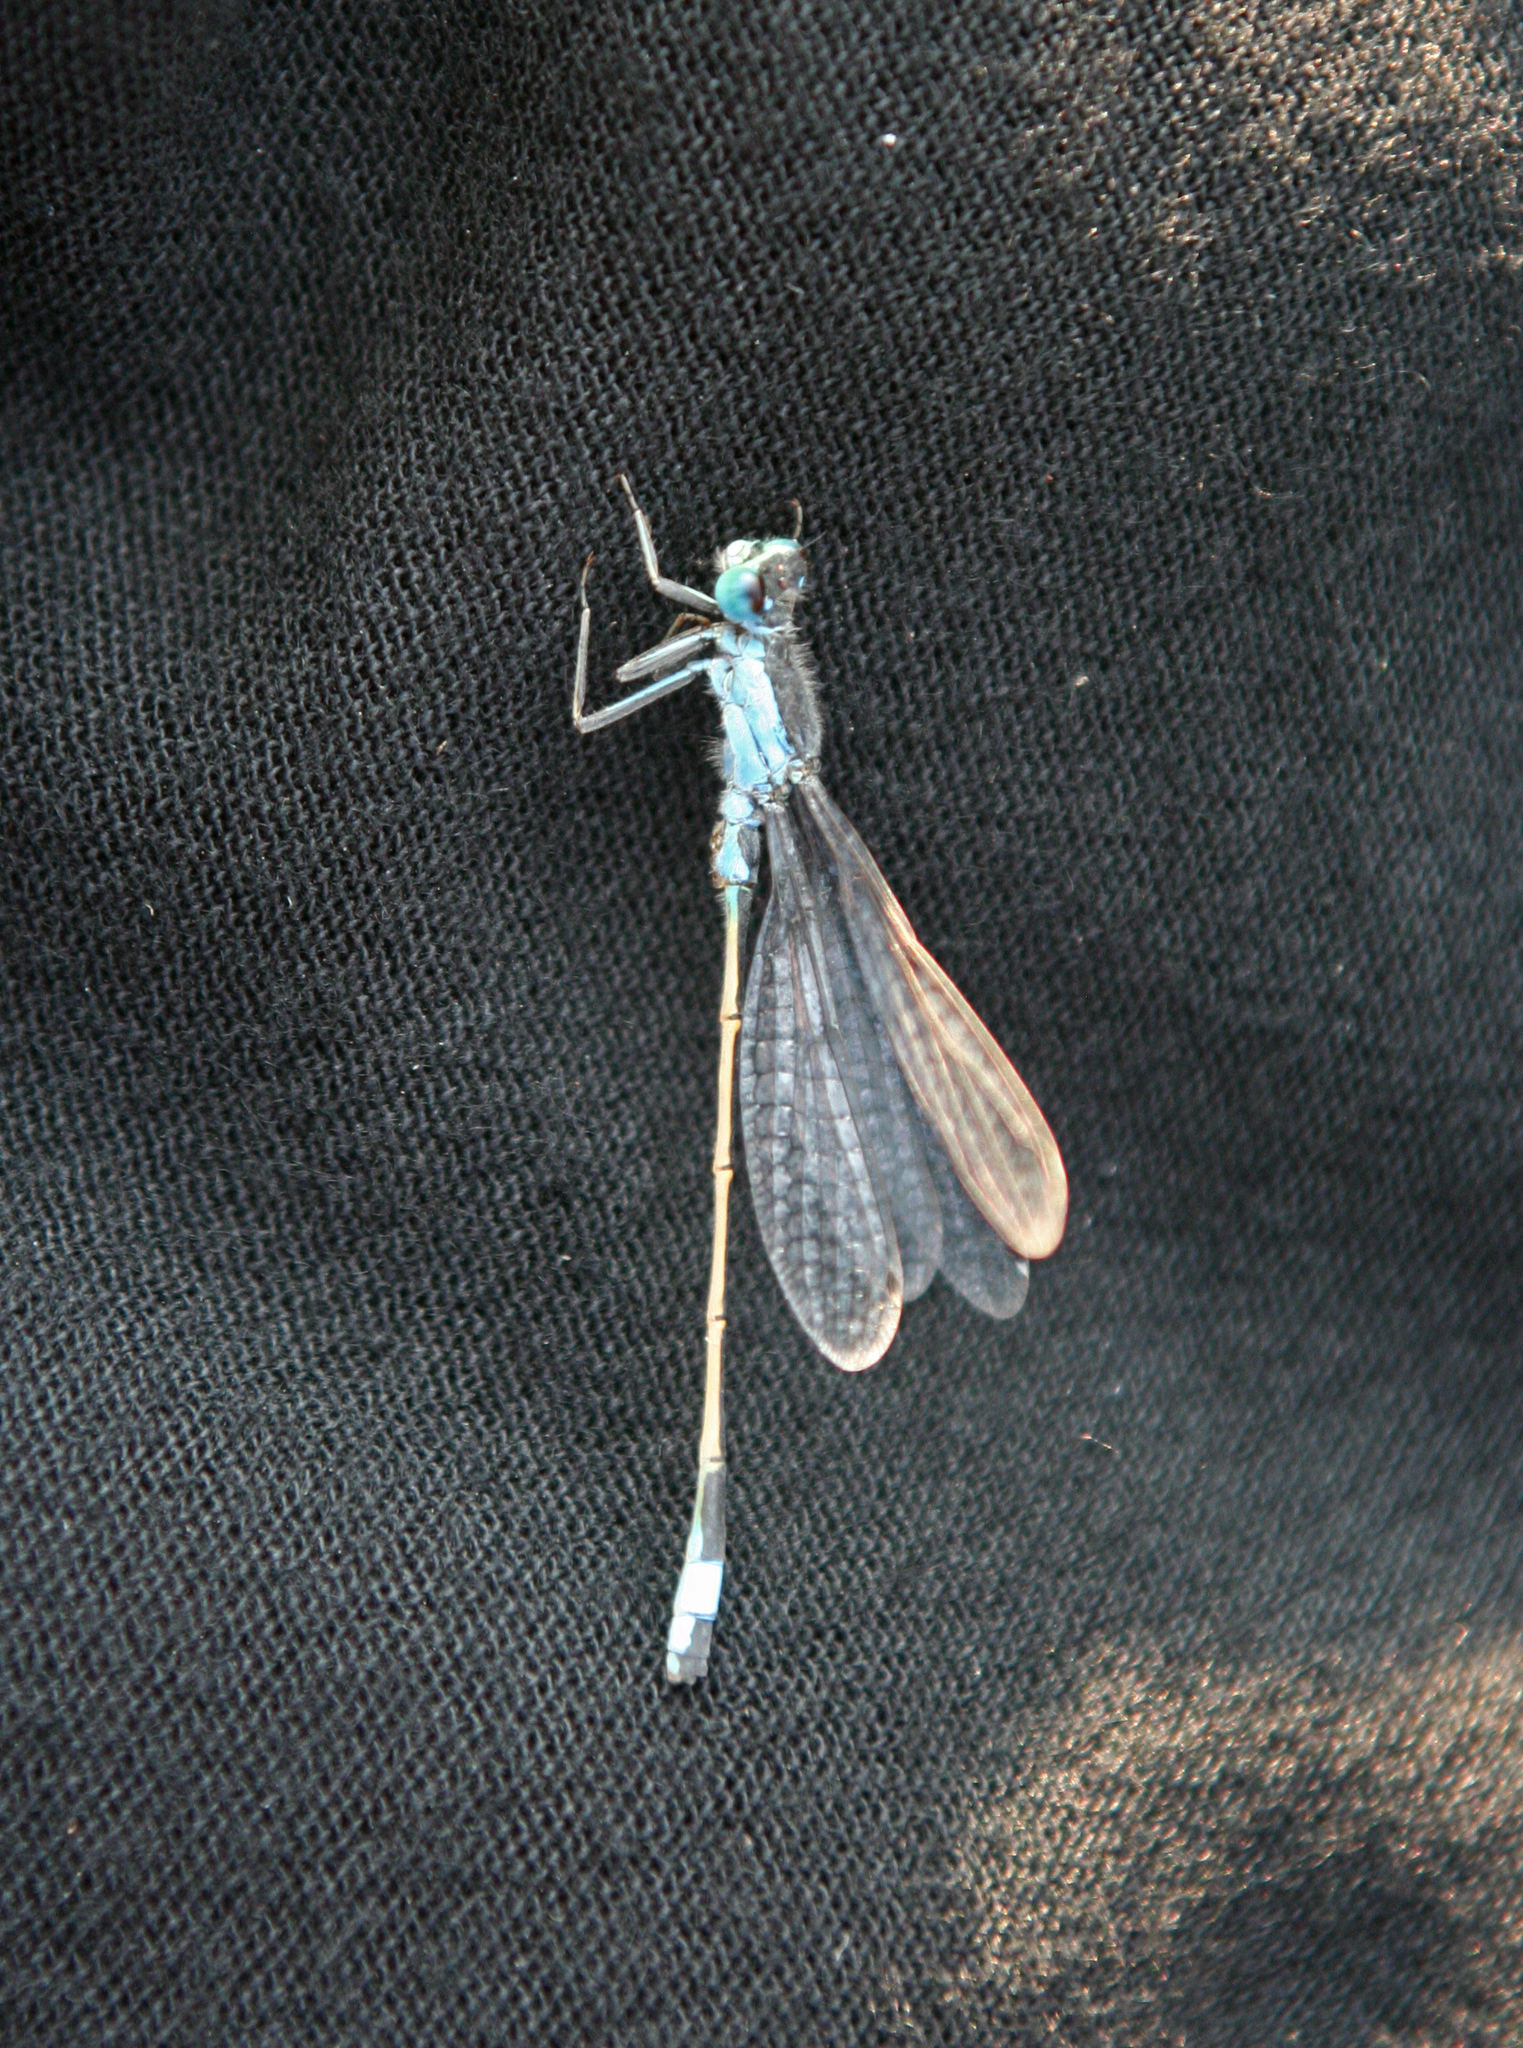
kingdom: Animalia
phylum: Arthropoda
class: Insecta
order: Odonata
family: Coenagrionidae
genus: Ischnura
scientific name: Ischnura fountaineae
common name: Oasis bluetail
